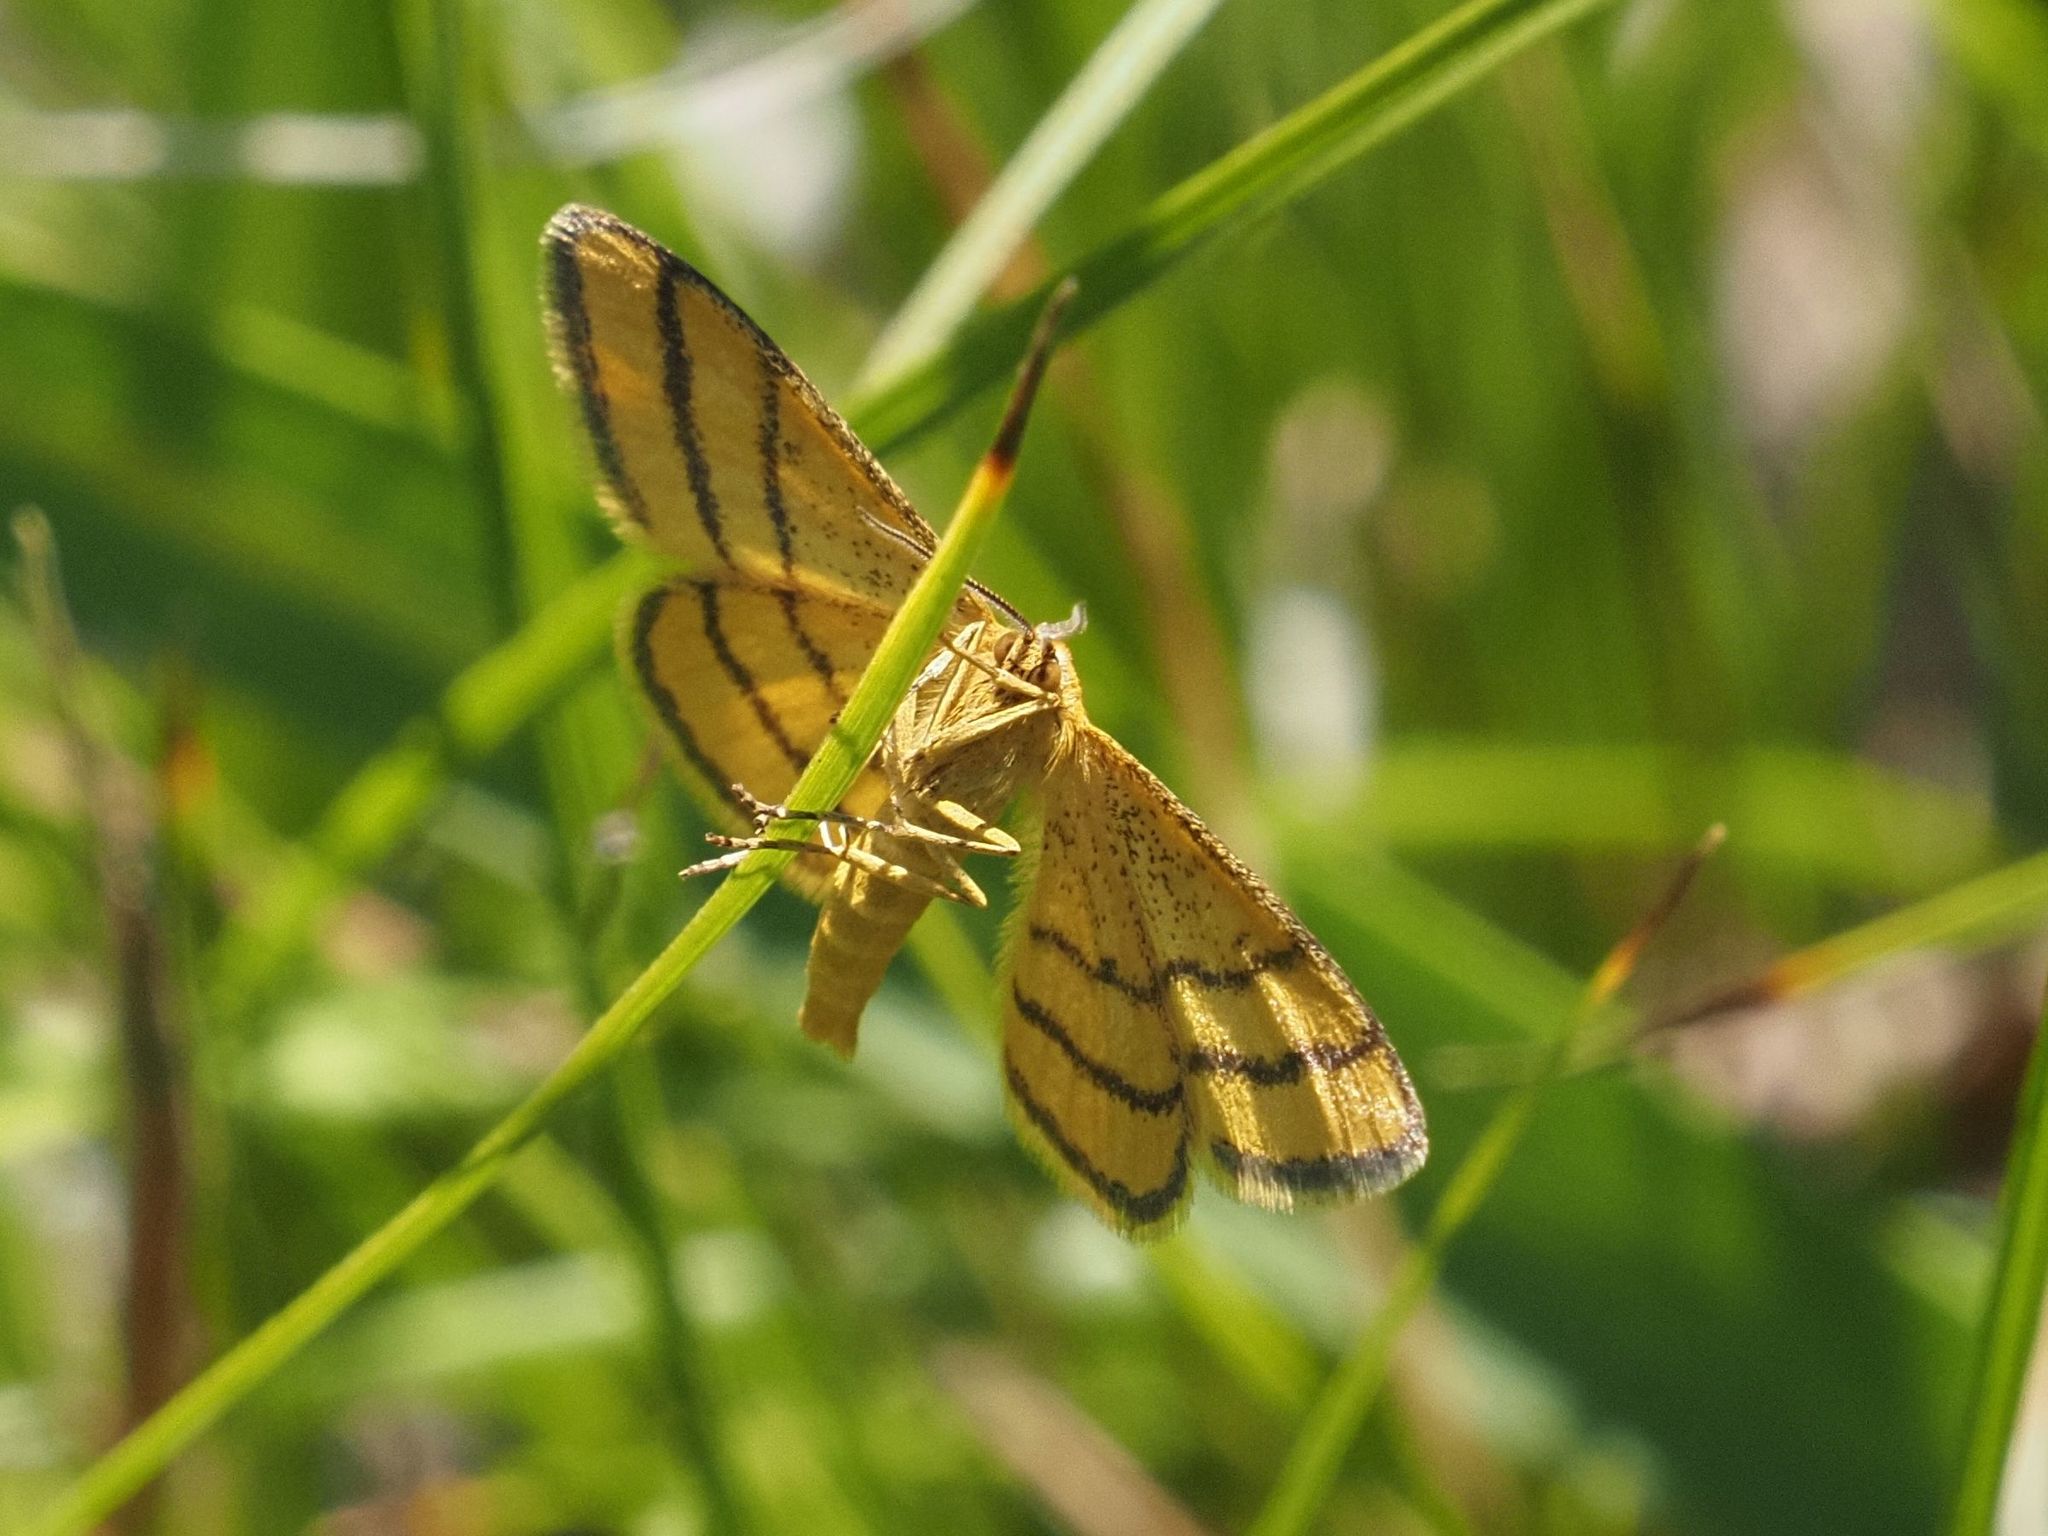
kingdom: Animalia
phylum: Arthropoda
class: Insecta
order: Lepidoptera
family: Geometridae
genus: Idaea
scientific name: Idaea aureolaria
